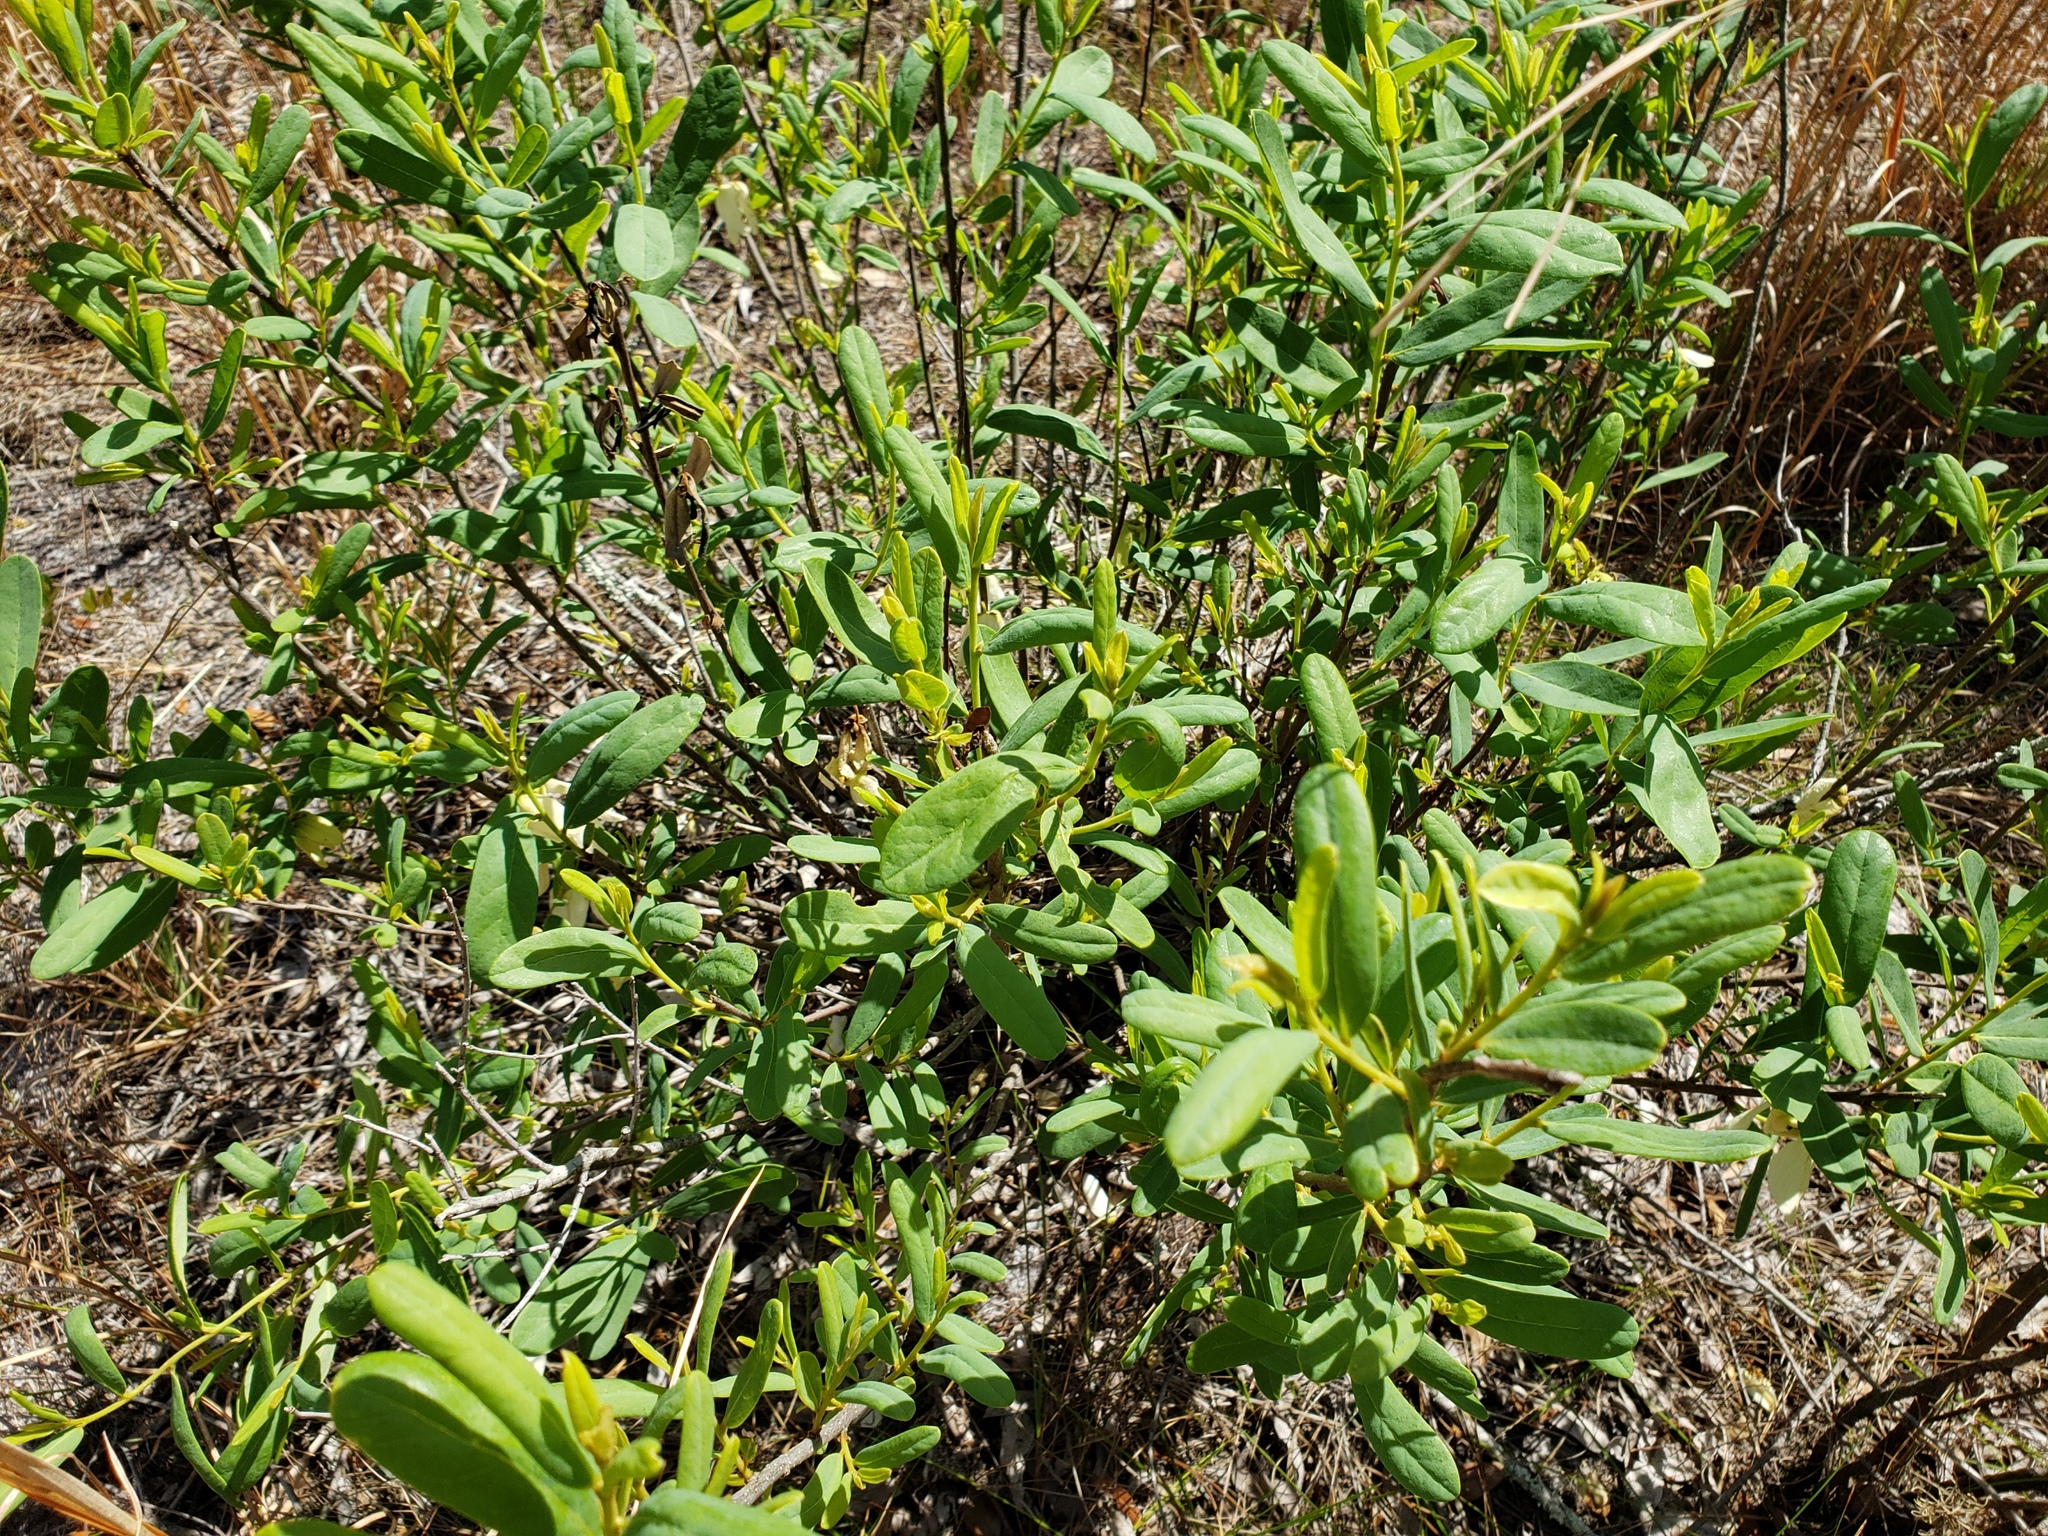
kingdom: Plantae
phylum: Tracheophyta
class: Magnoliopsida
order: Magnoliales
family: Annonaceae
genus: Asimina
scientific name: Asimina reticulata
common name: Flag pawpaw
